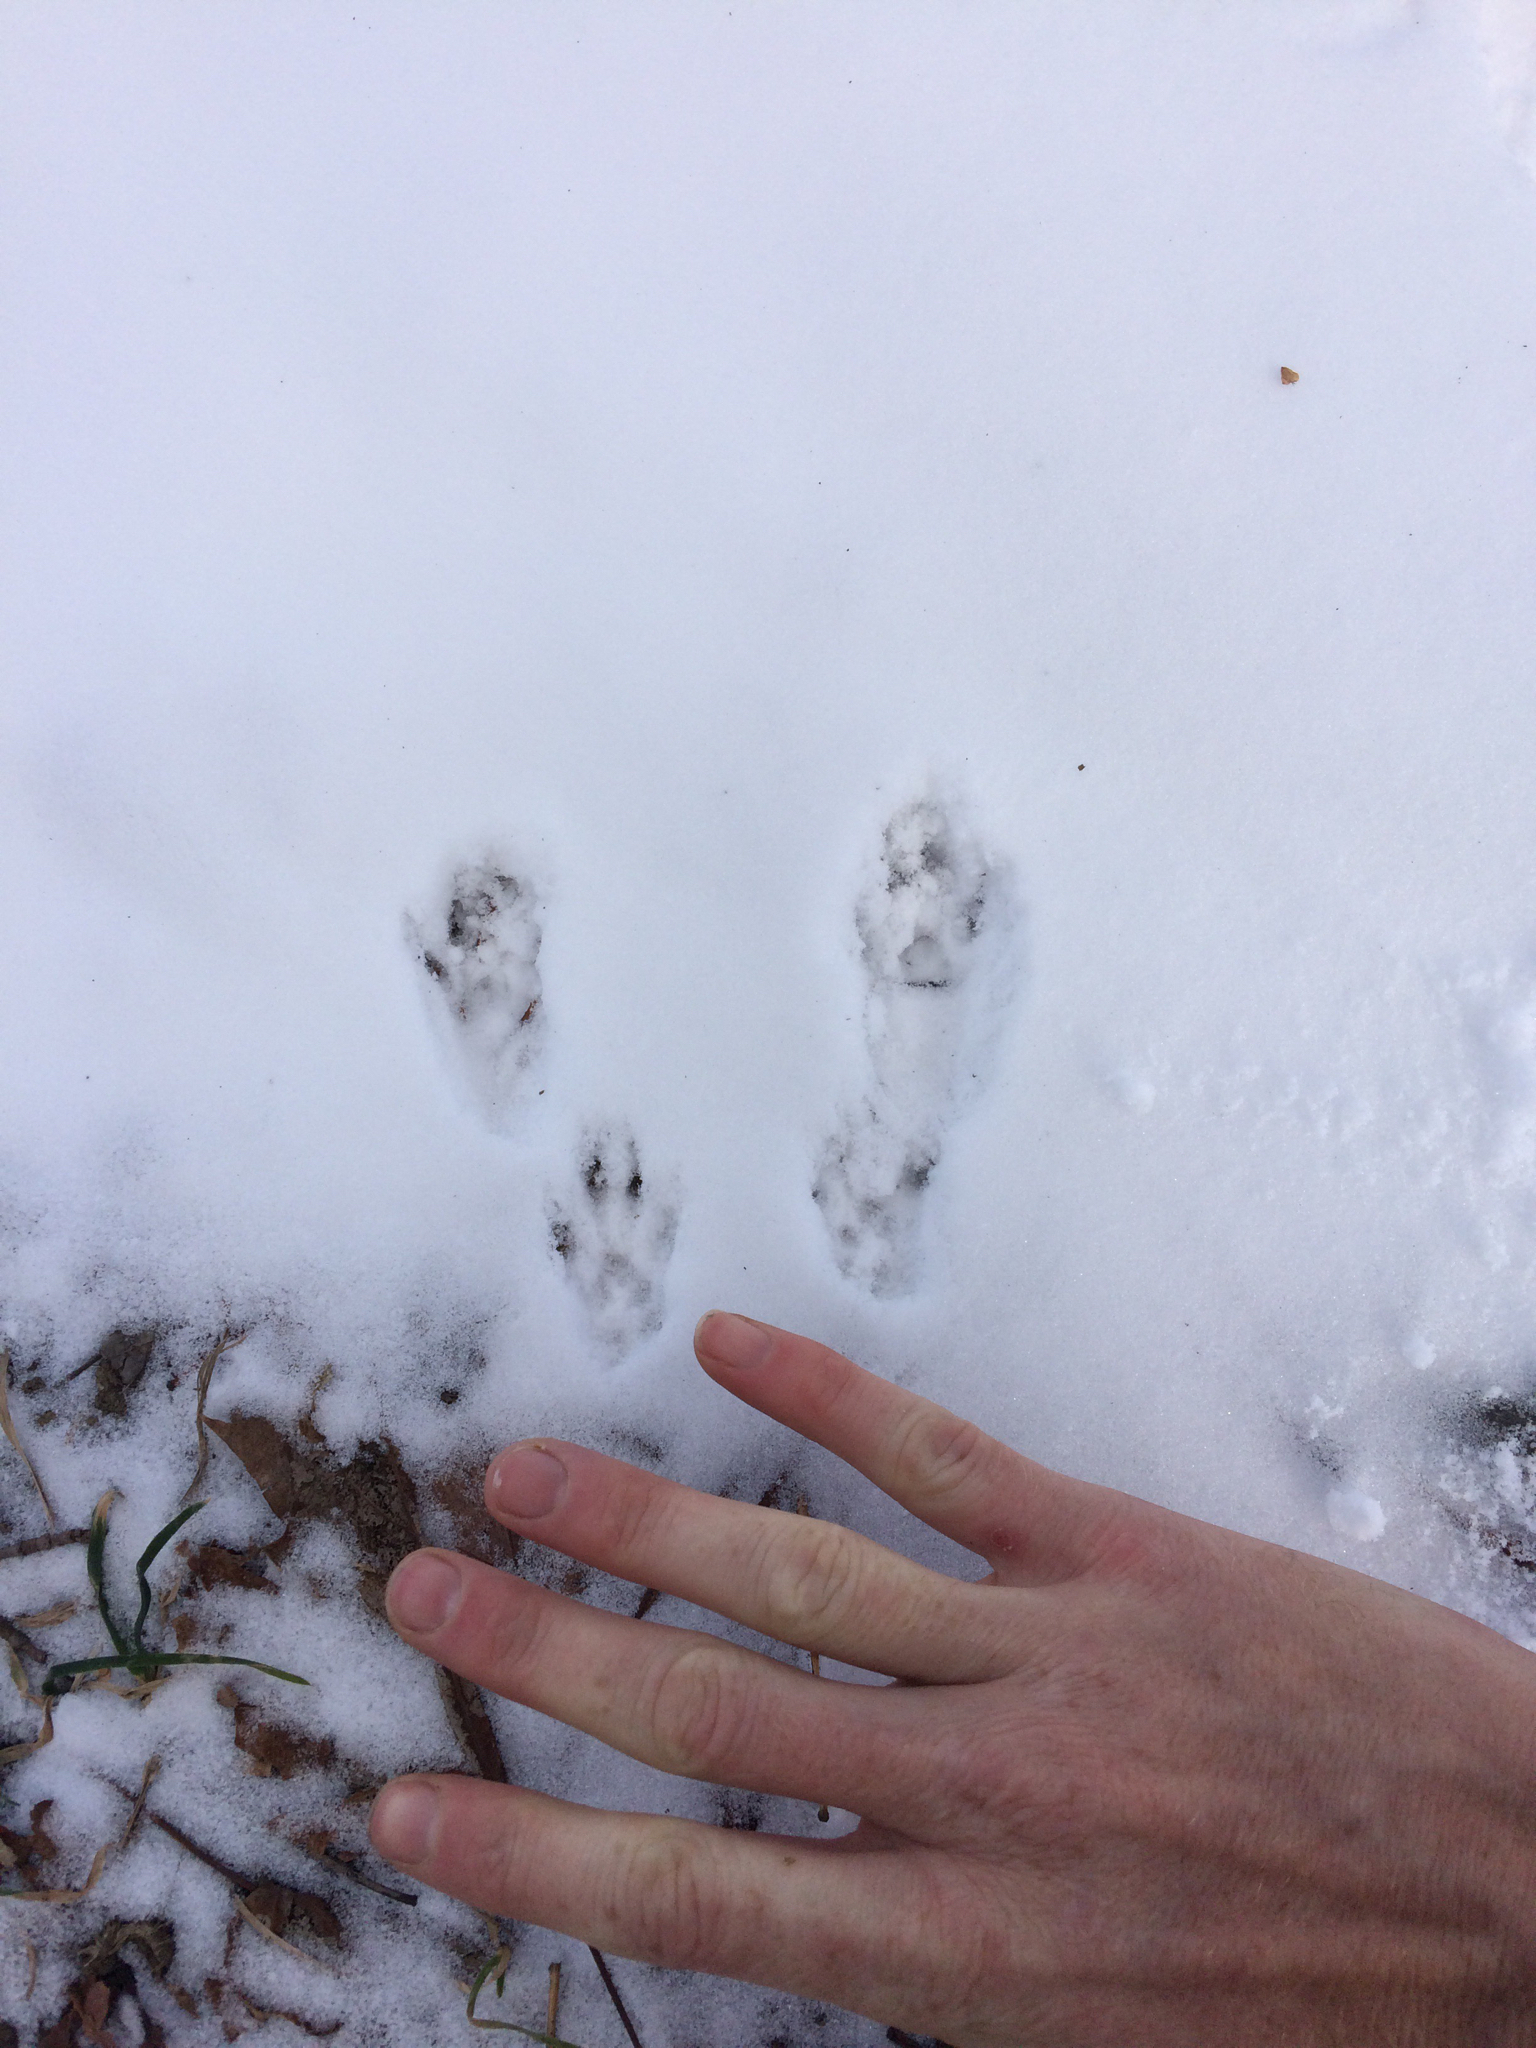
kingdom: Animalia
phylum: Chordata
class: Mammalia
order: Rodentia
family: Sciuridae
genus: Sciurus
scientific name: Sciurus carolinensis
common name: Eastern gray squirrel
